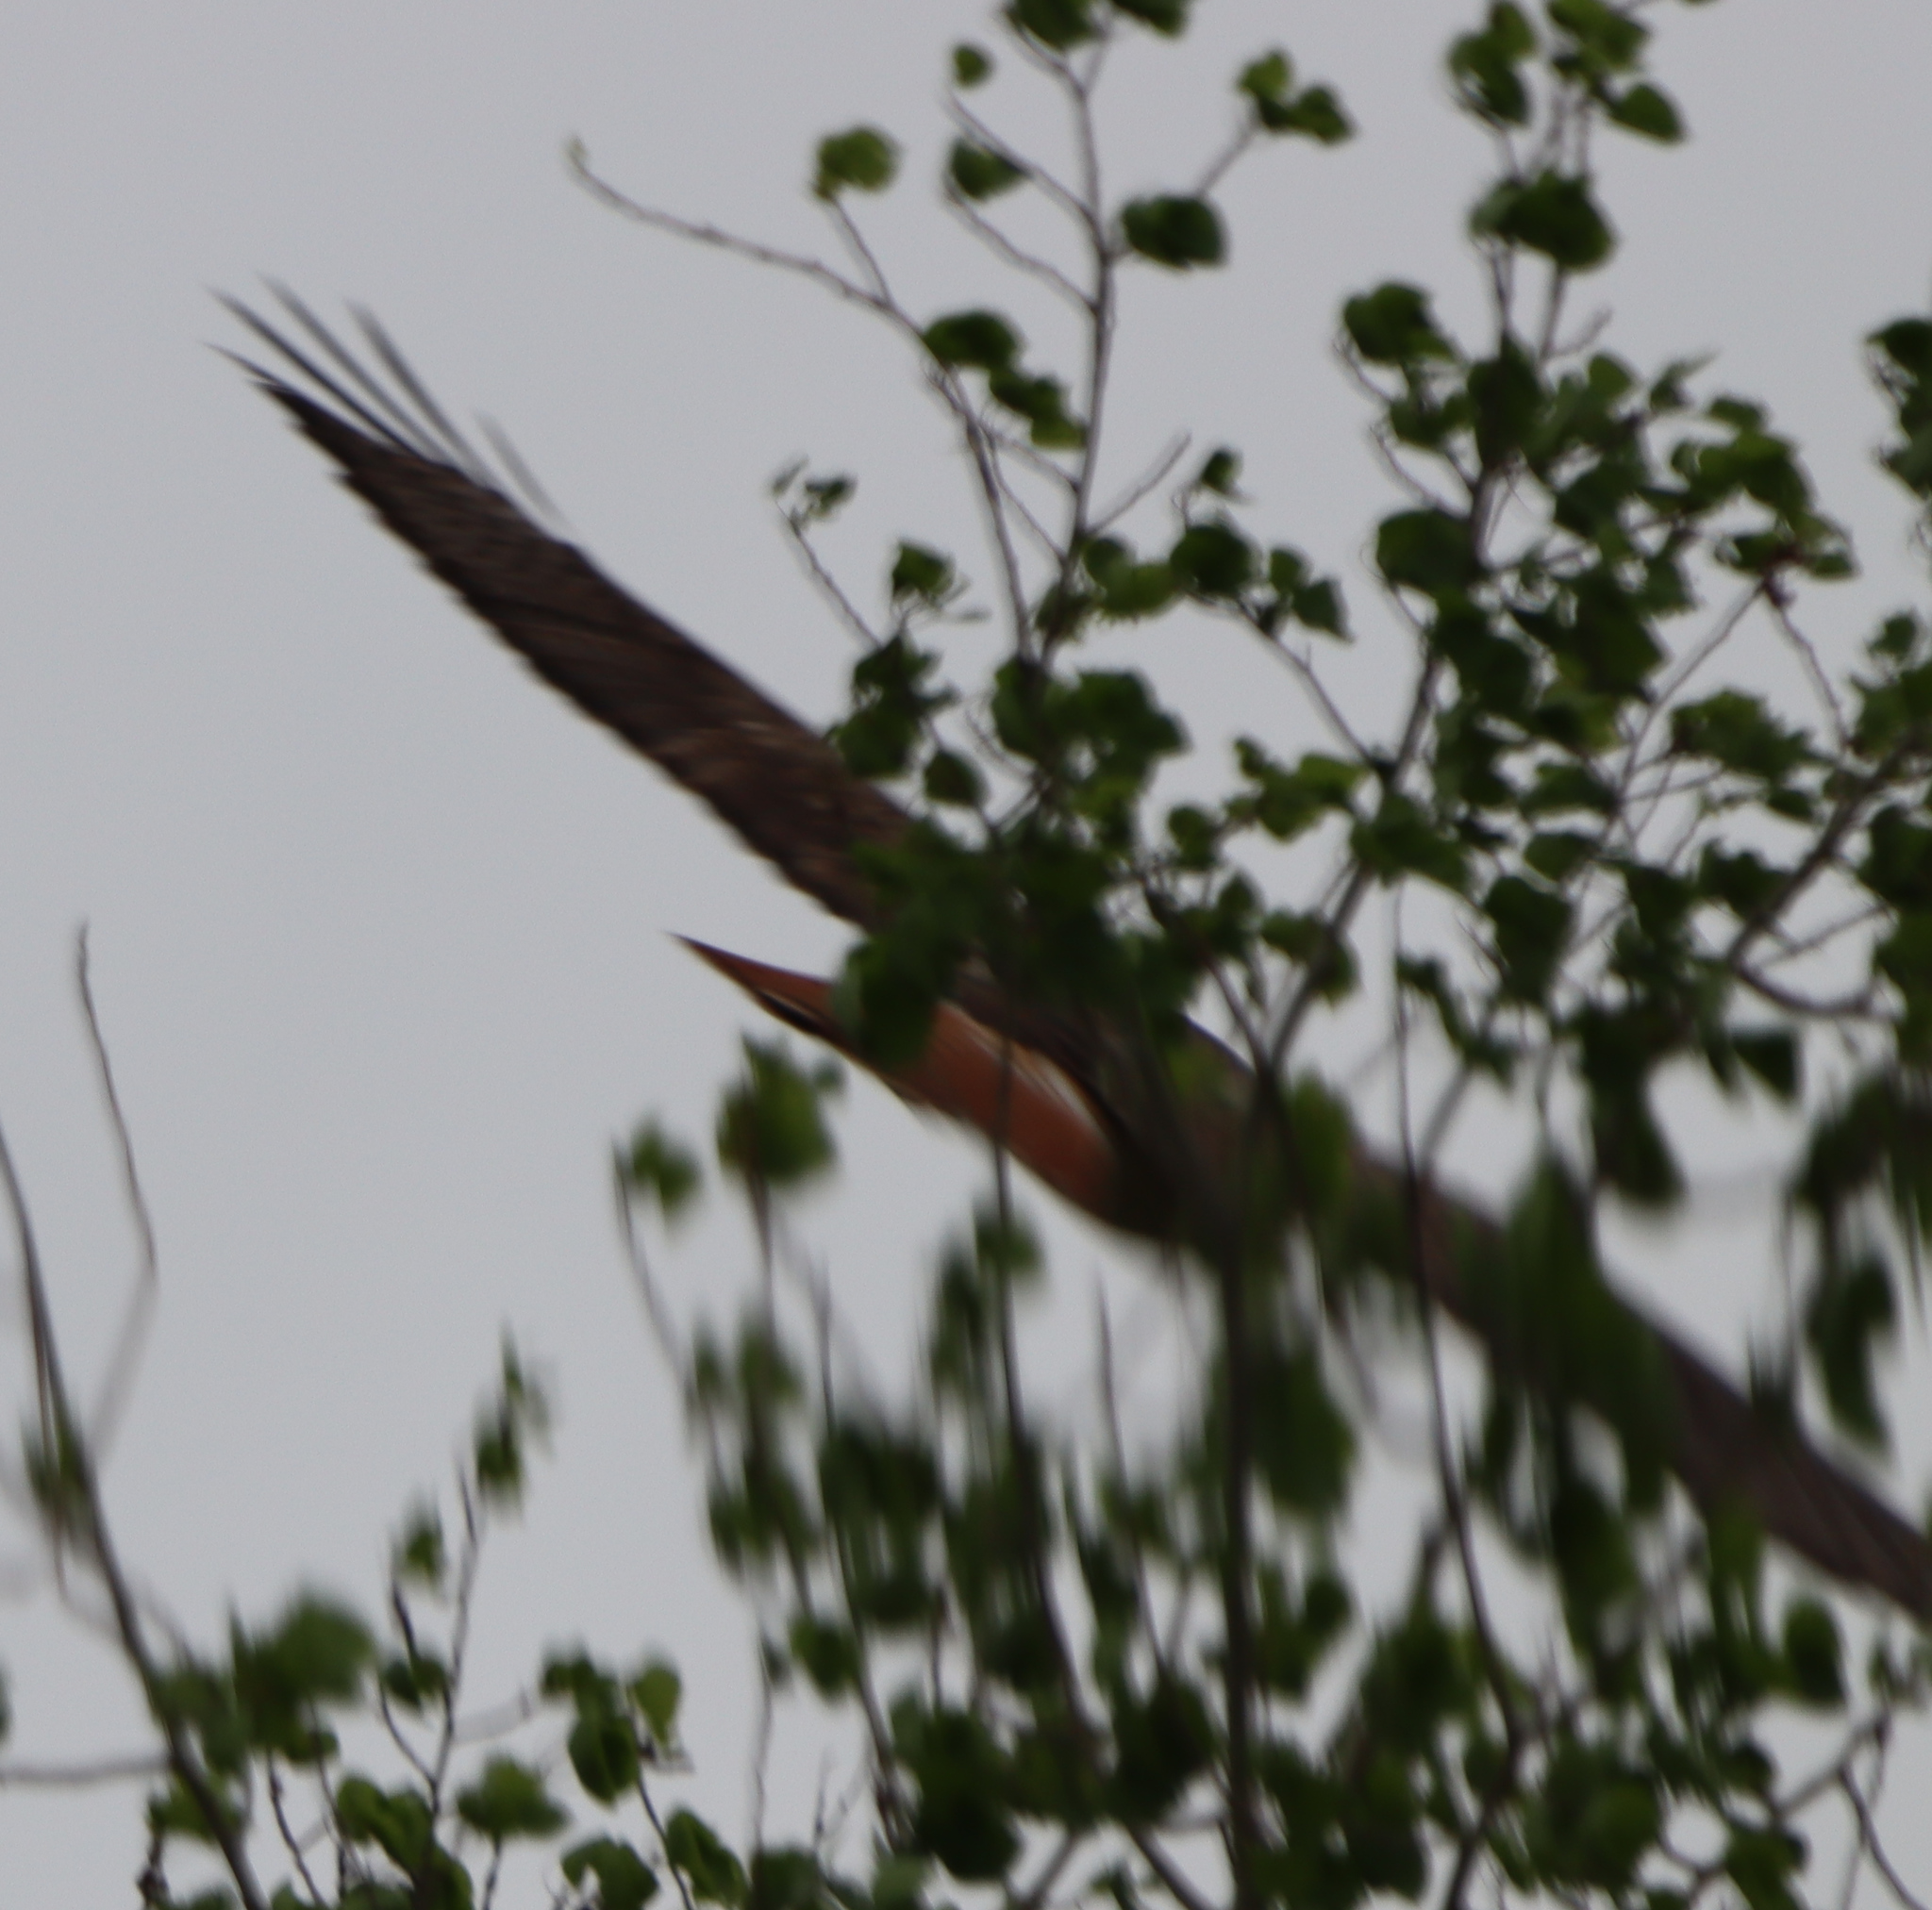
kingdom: Animalia
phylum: Chordata
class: Aves
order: Accipitriformes
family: Accipitridae
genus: Buteo
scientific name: Buteo jamaicensis
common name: Red-tailed hawk
